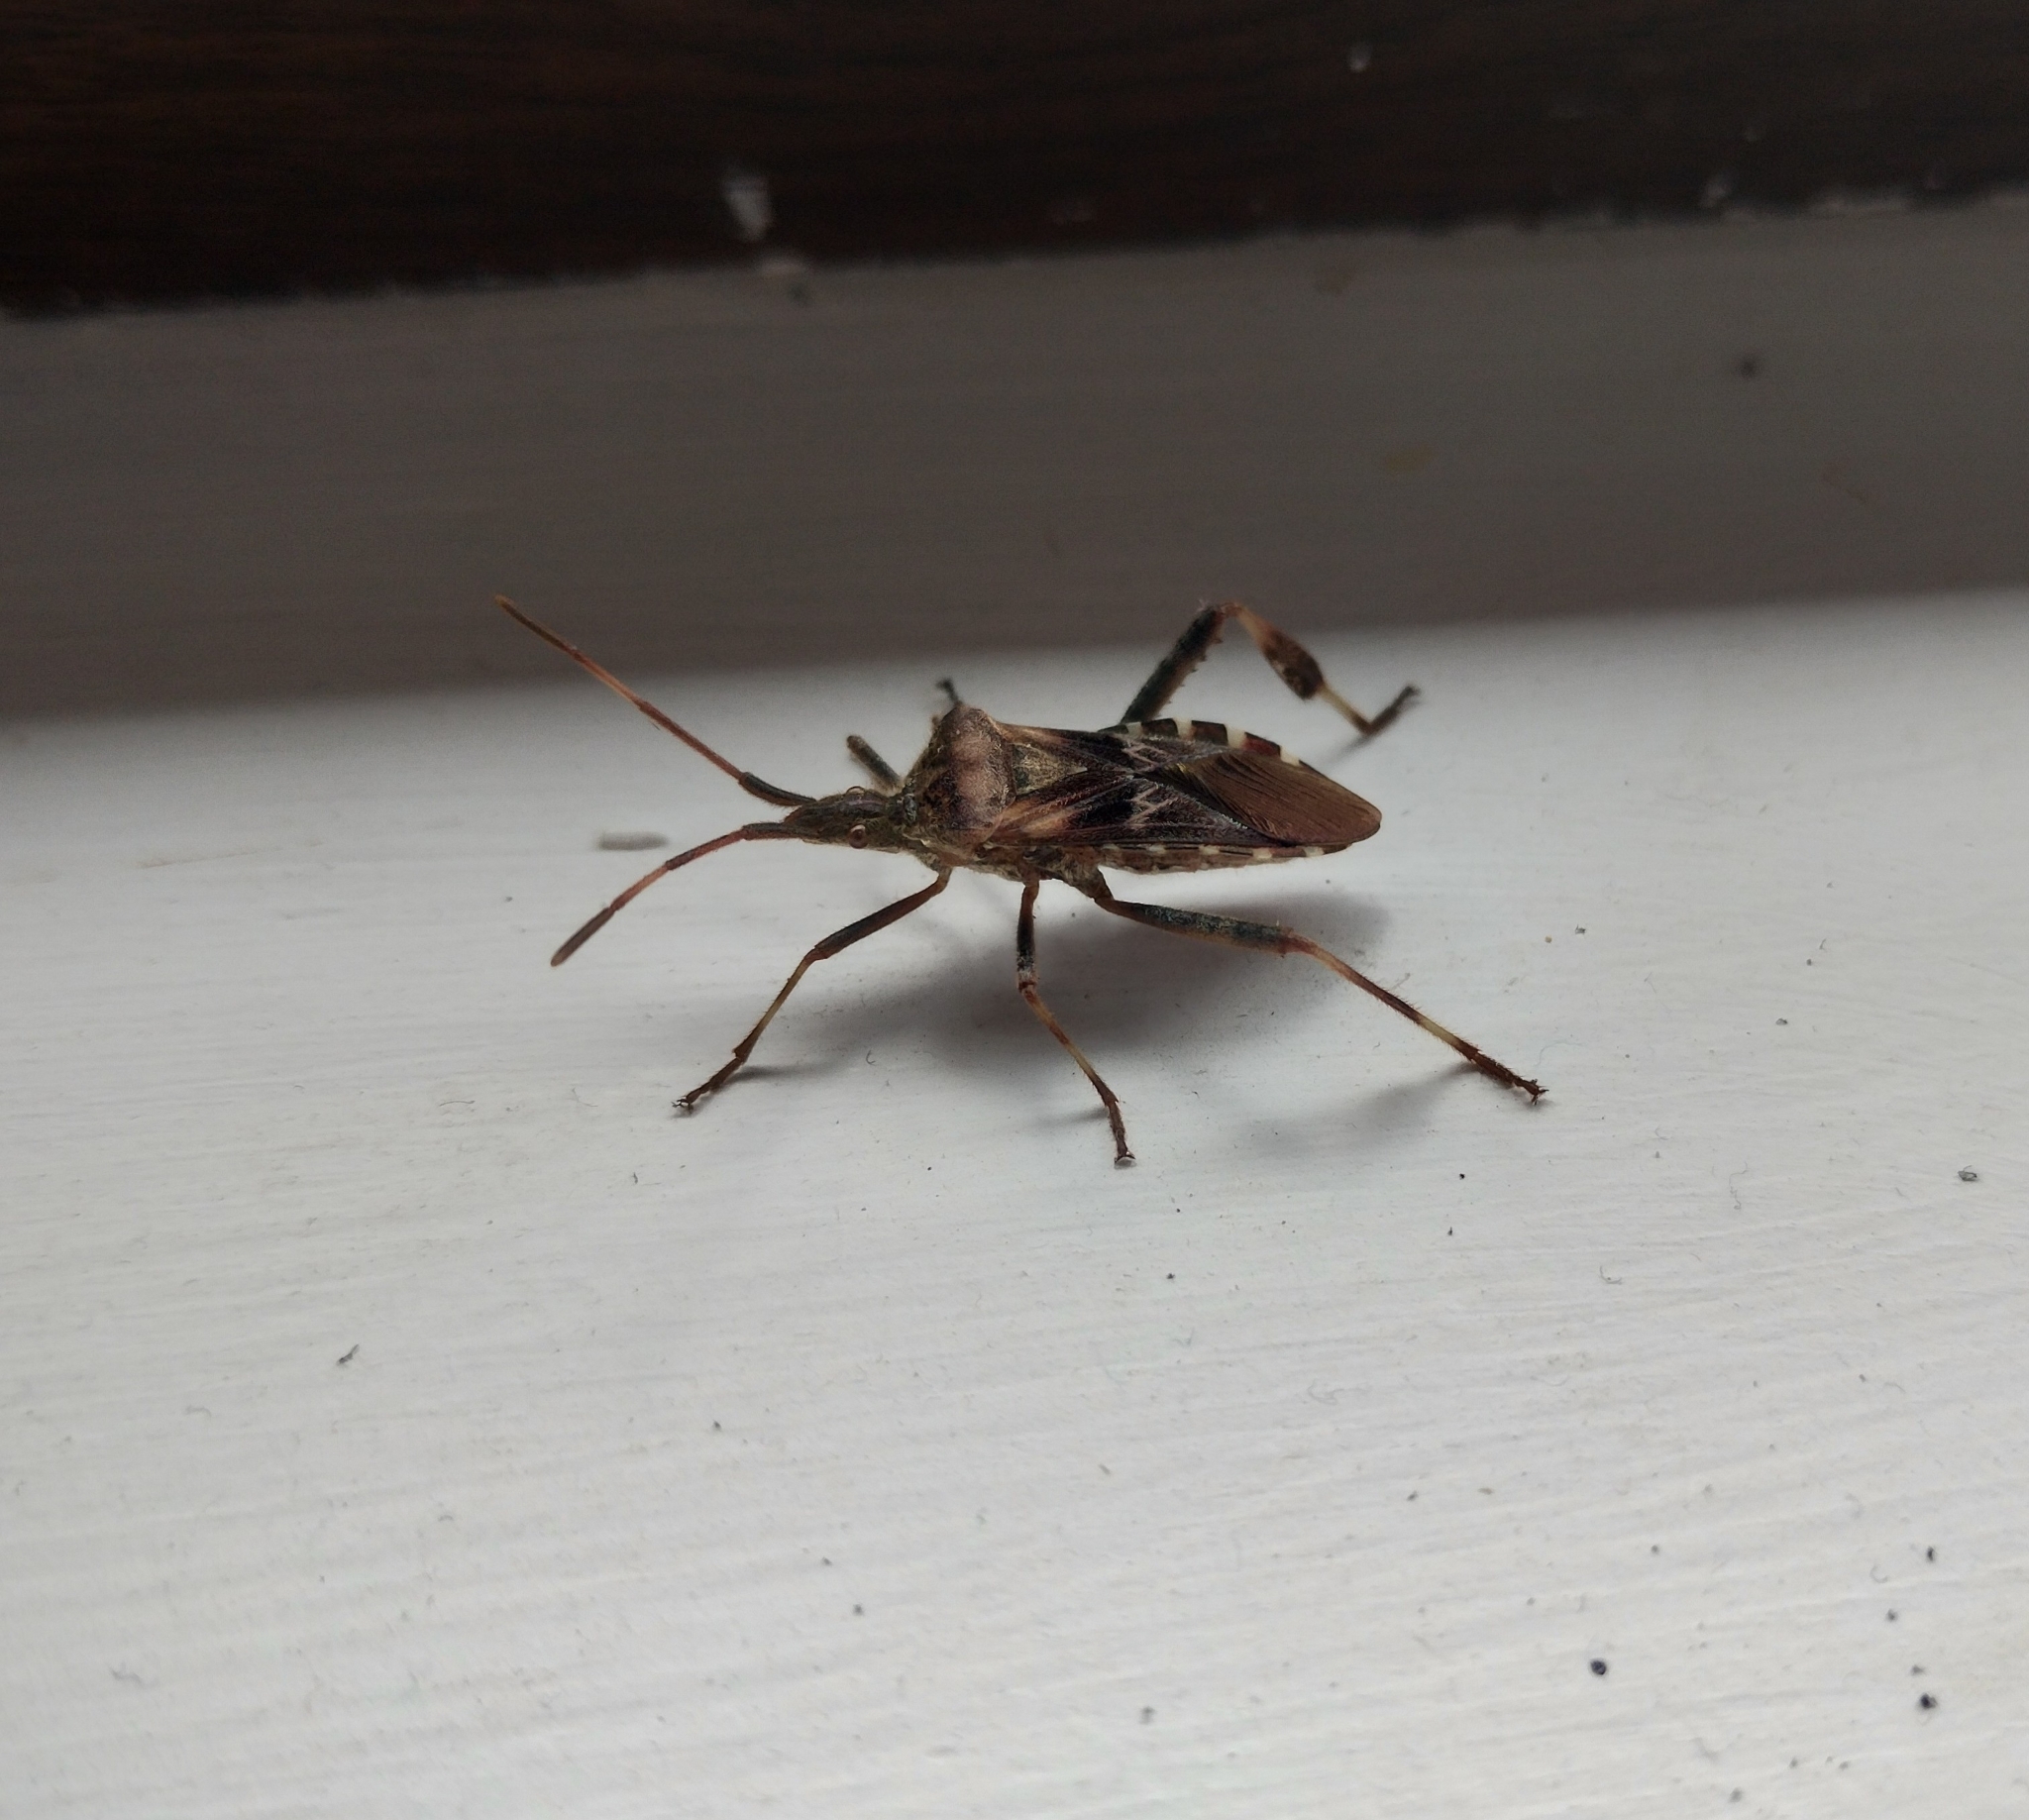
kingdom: Animalia
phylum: Arthropoda
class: Insecta
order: Hemiptera
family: Coreidae
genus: Leptoglossus
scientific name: Leptoglossus occidentalis
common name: Western conifer-seed bug
